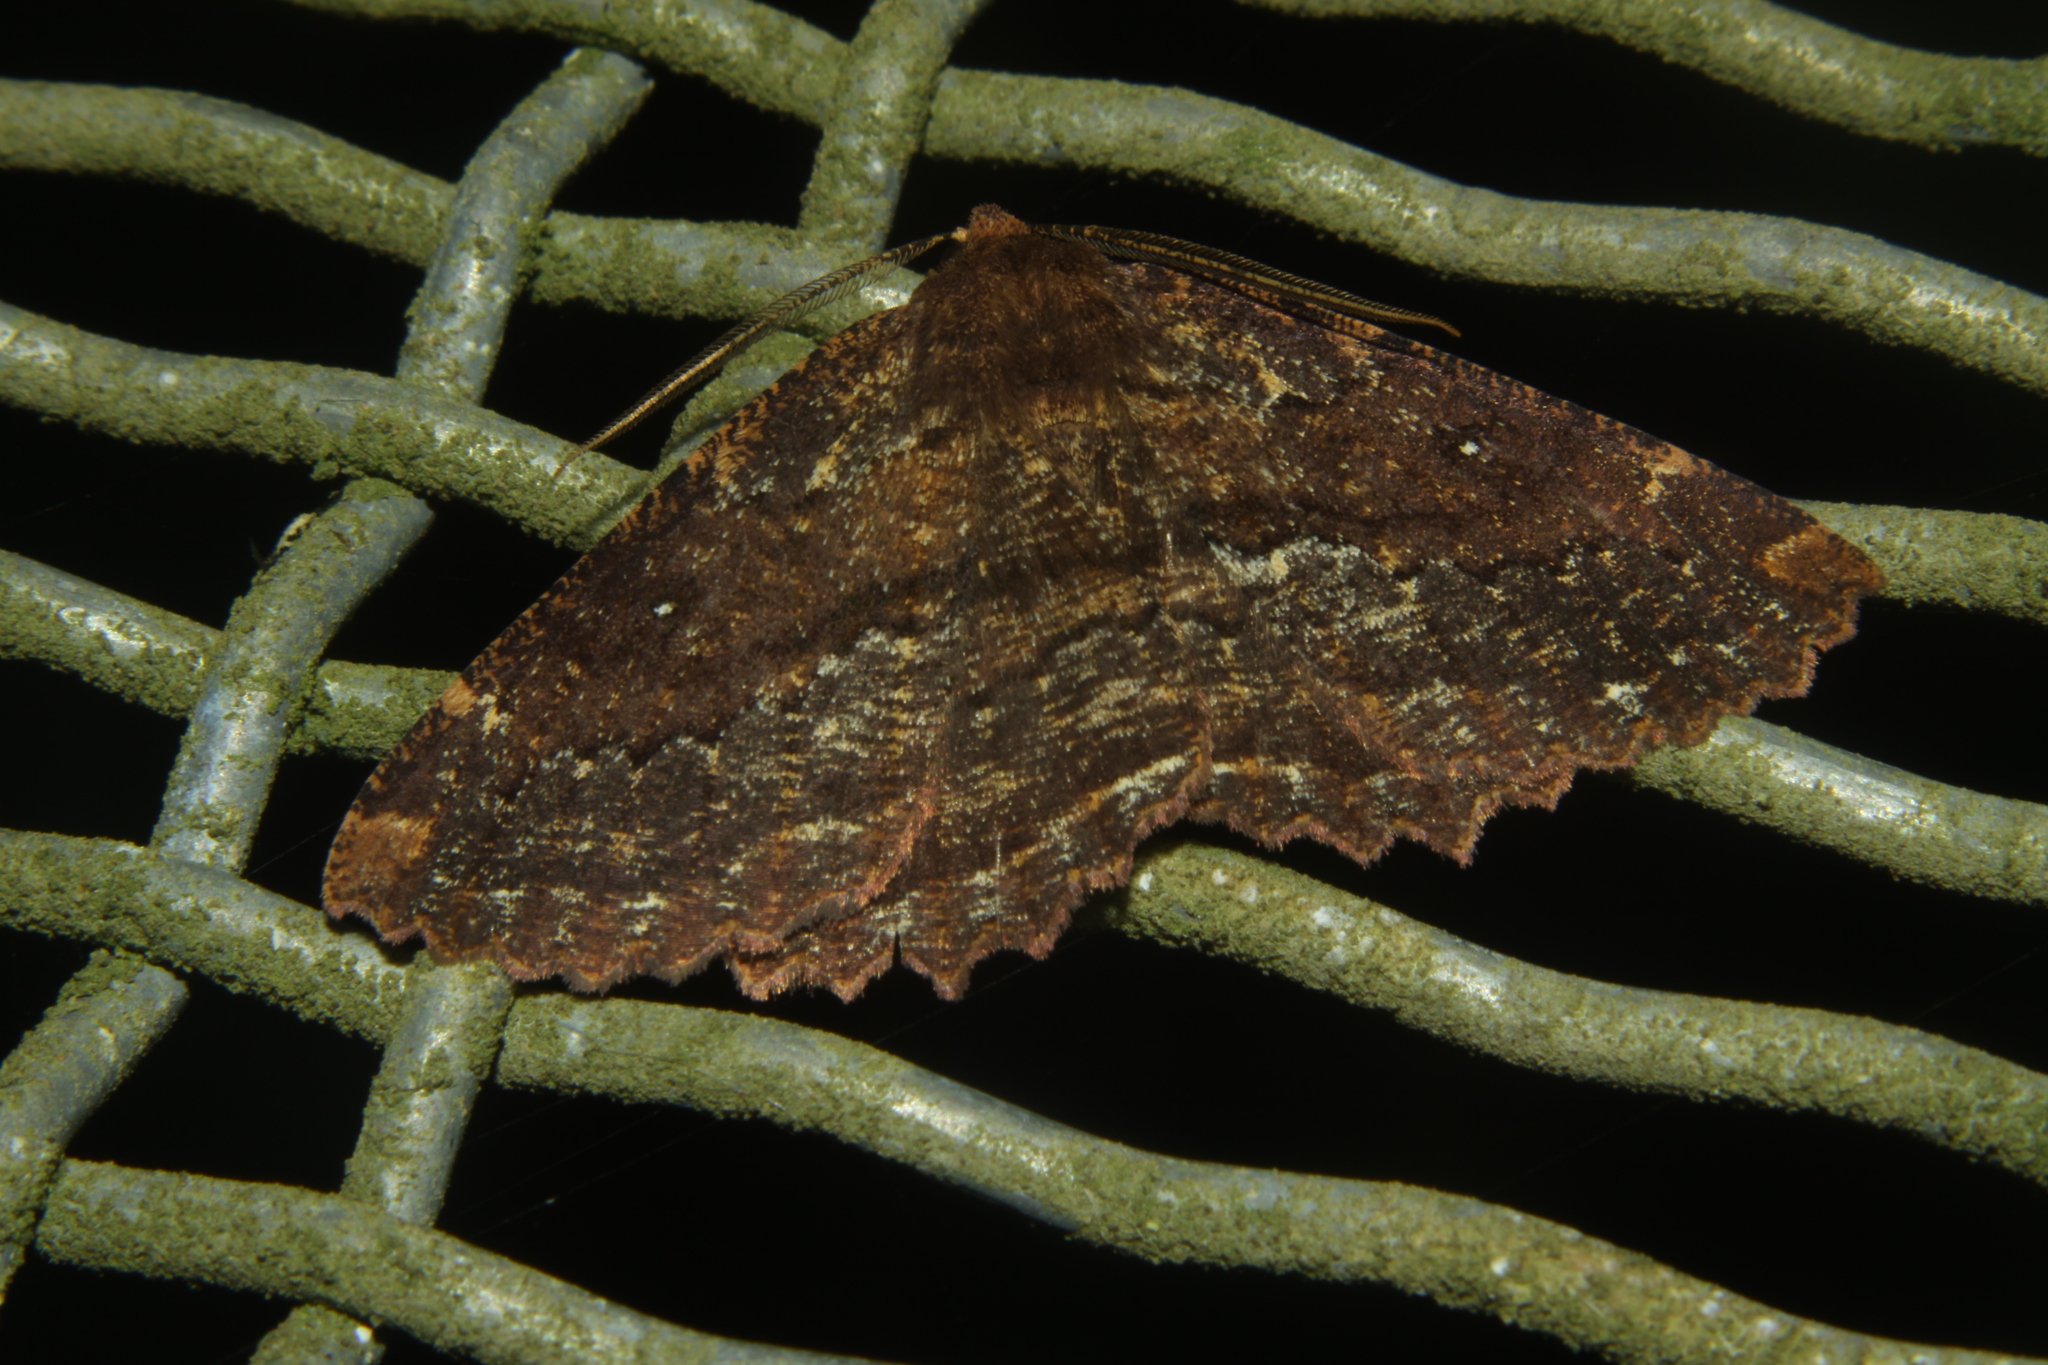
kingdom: Animalia
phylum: Arthropoda
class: Insecta
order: Lepidoptera
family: Geometridae
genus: Gellonia
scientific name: Gellonia dejectaria
